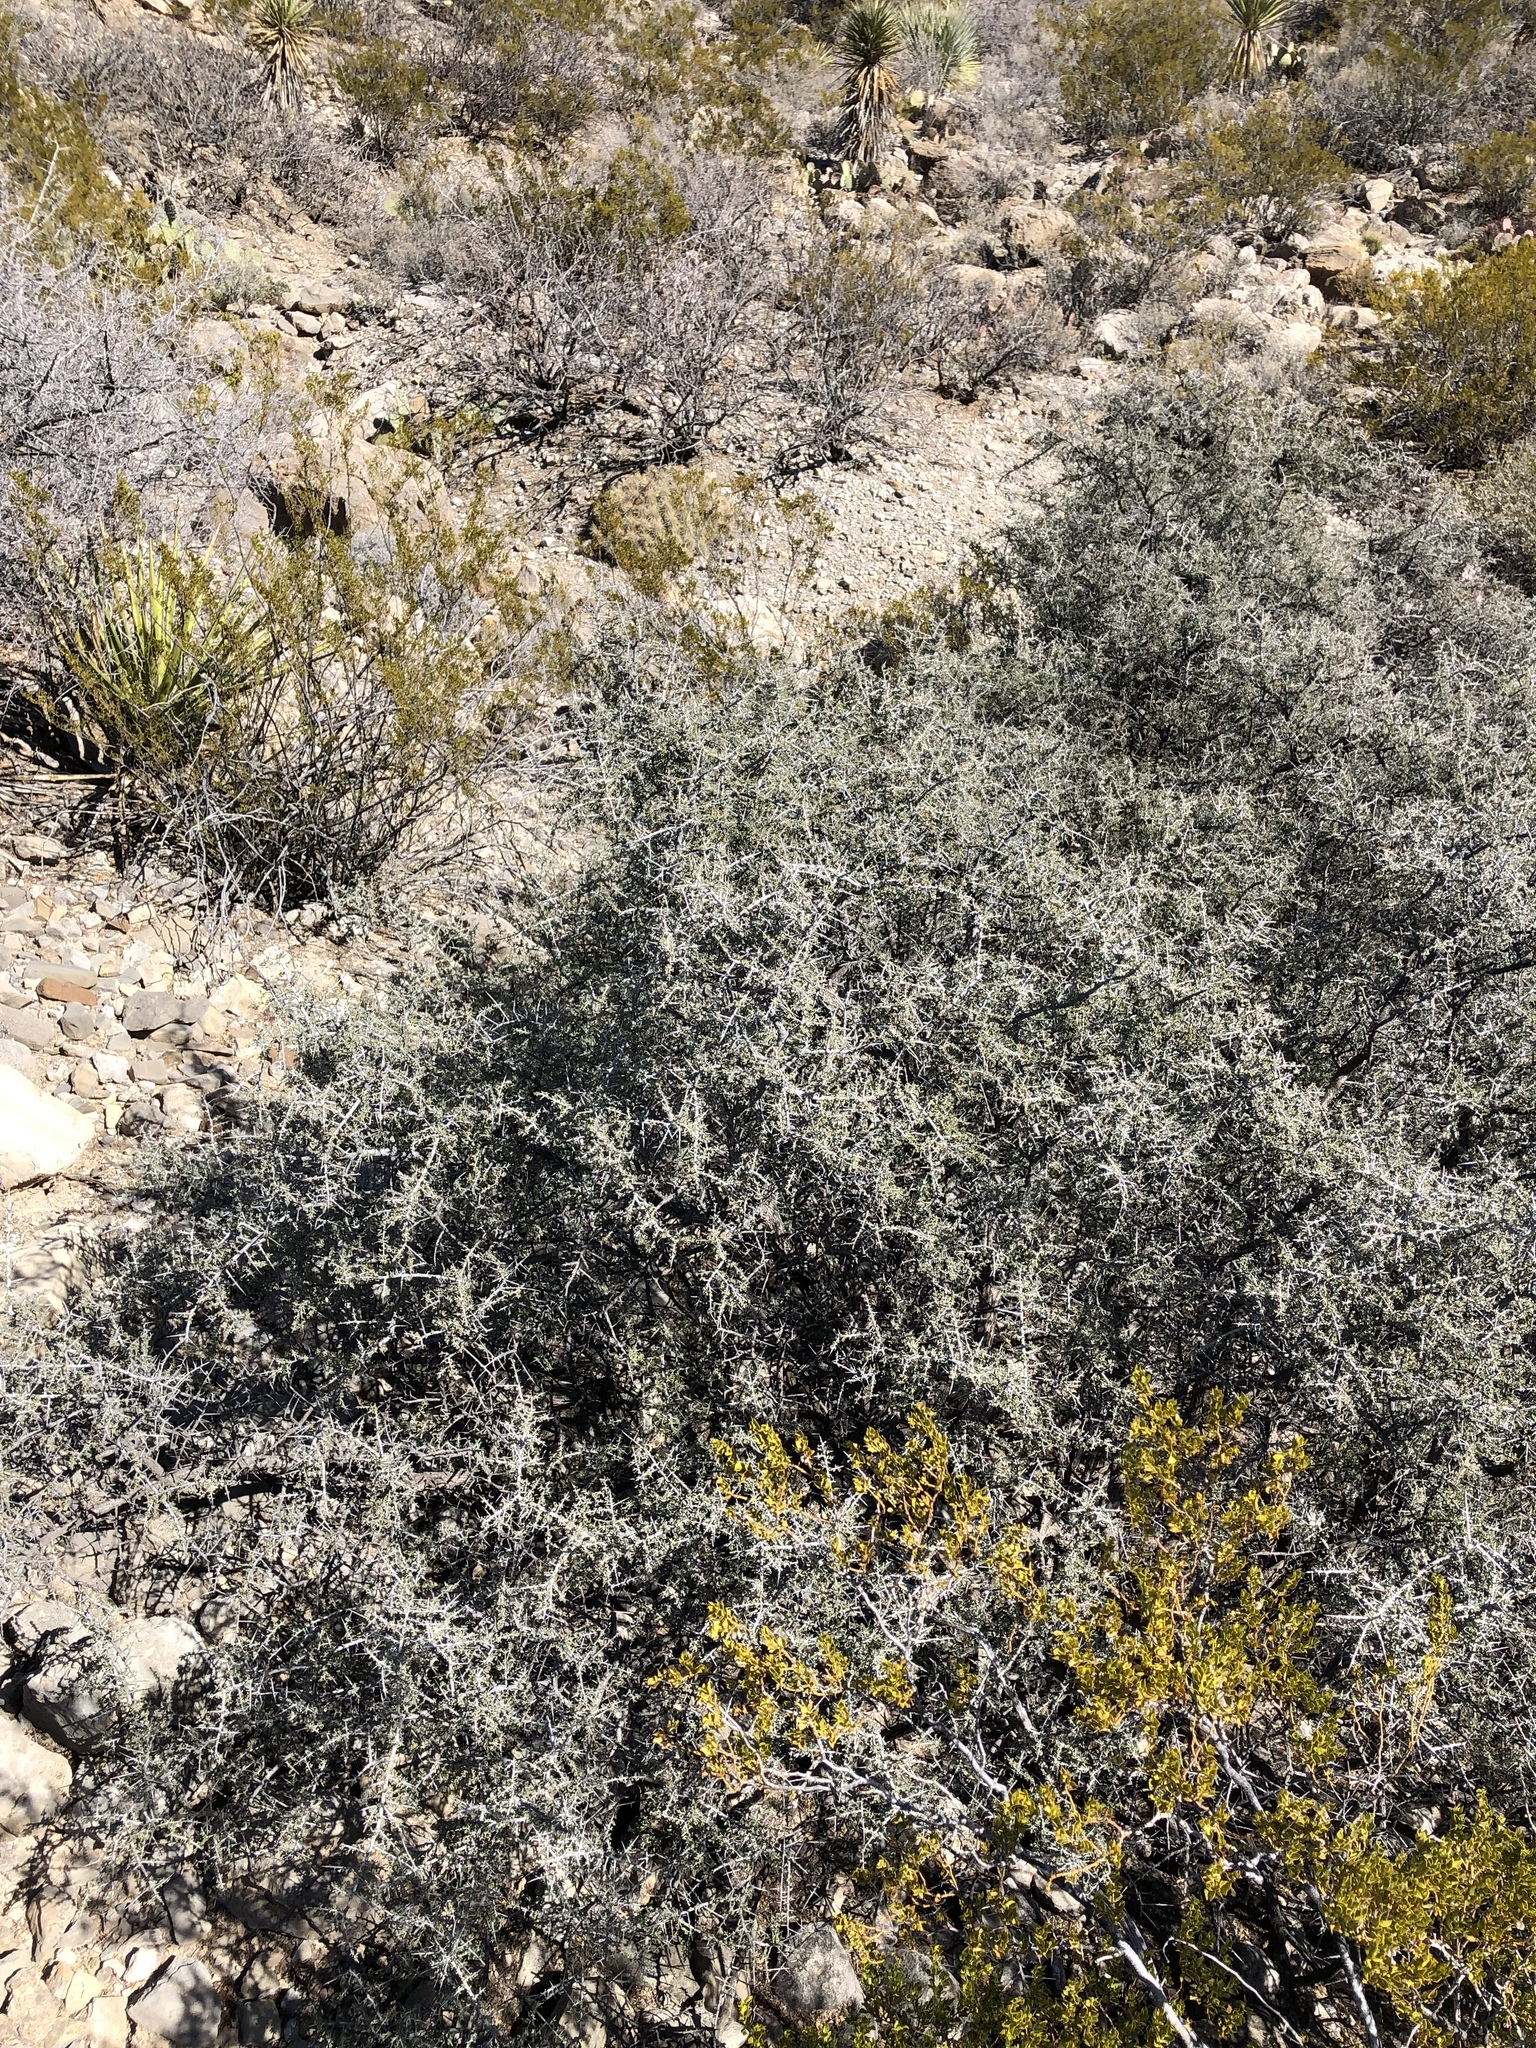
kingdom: Plantae
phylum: Tracheophyta
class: Magnoliopsida
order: Rosales
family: Rhamnaceae
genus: Condalia
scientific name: Condalia warnockii
